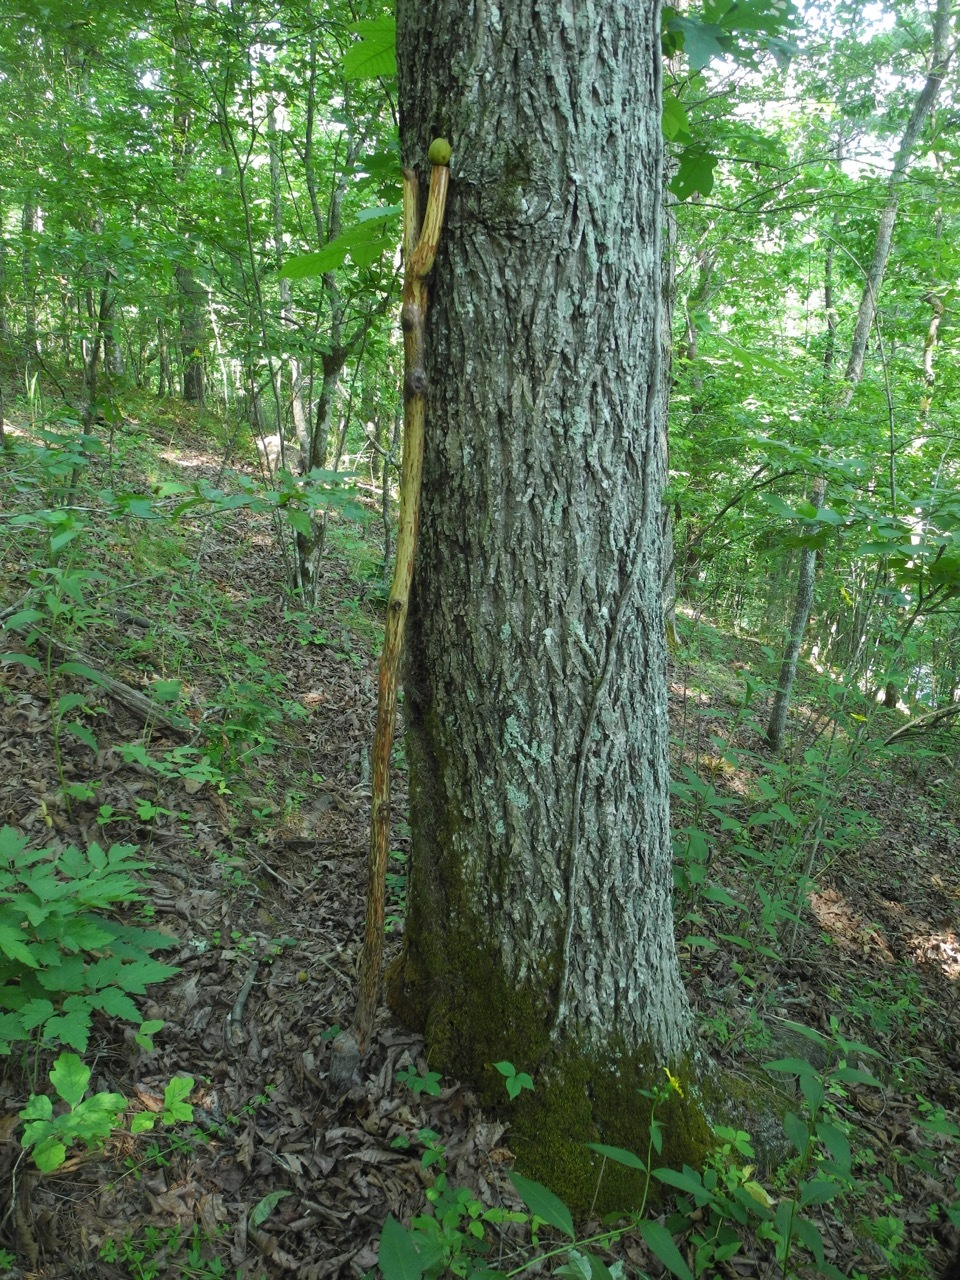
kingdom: Plantae
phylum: Tracheophyta
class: Magnoliopsida
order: Fagales
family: Juglandaceae
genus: Carya
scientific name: Carya alba
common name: Mockernut hickory
